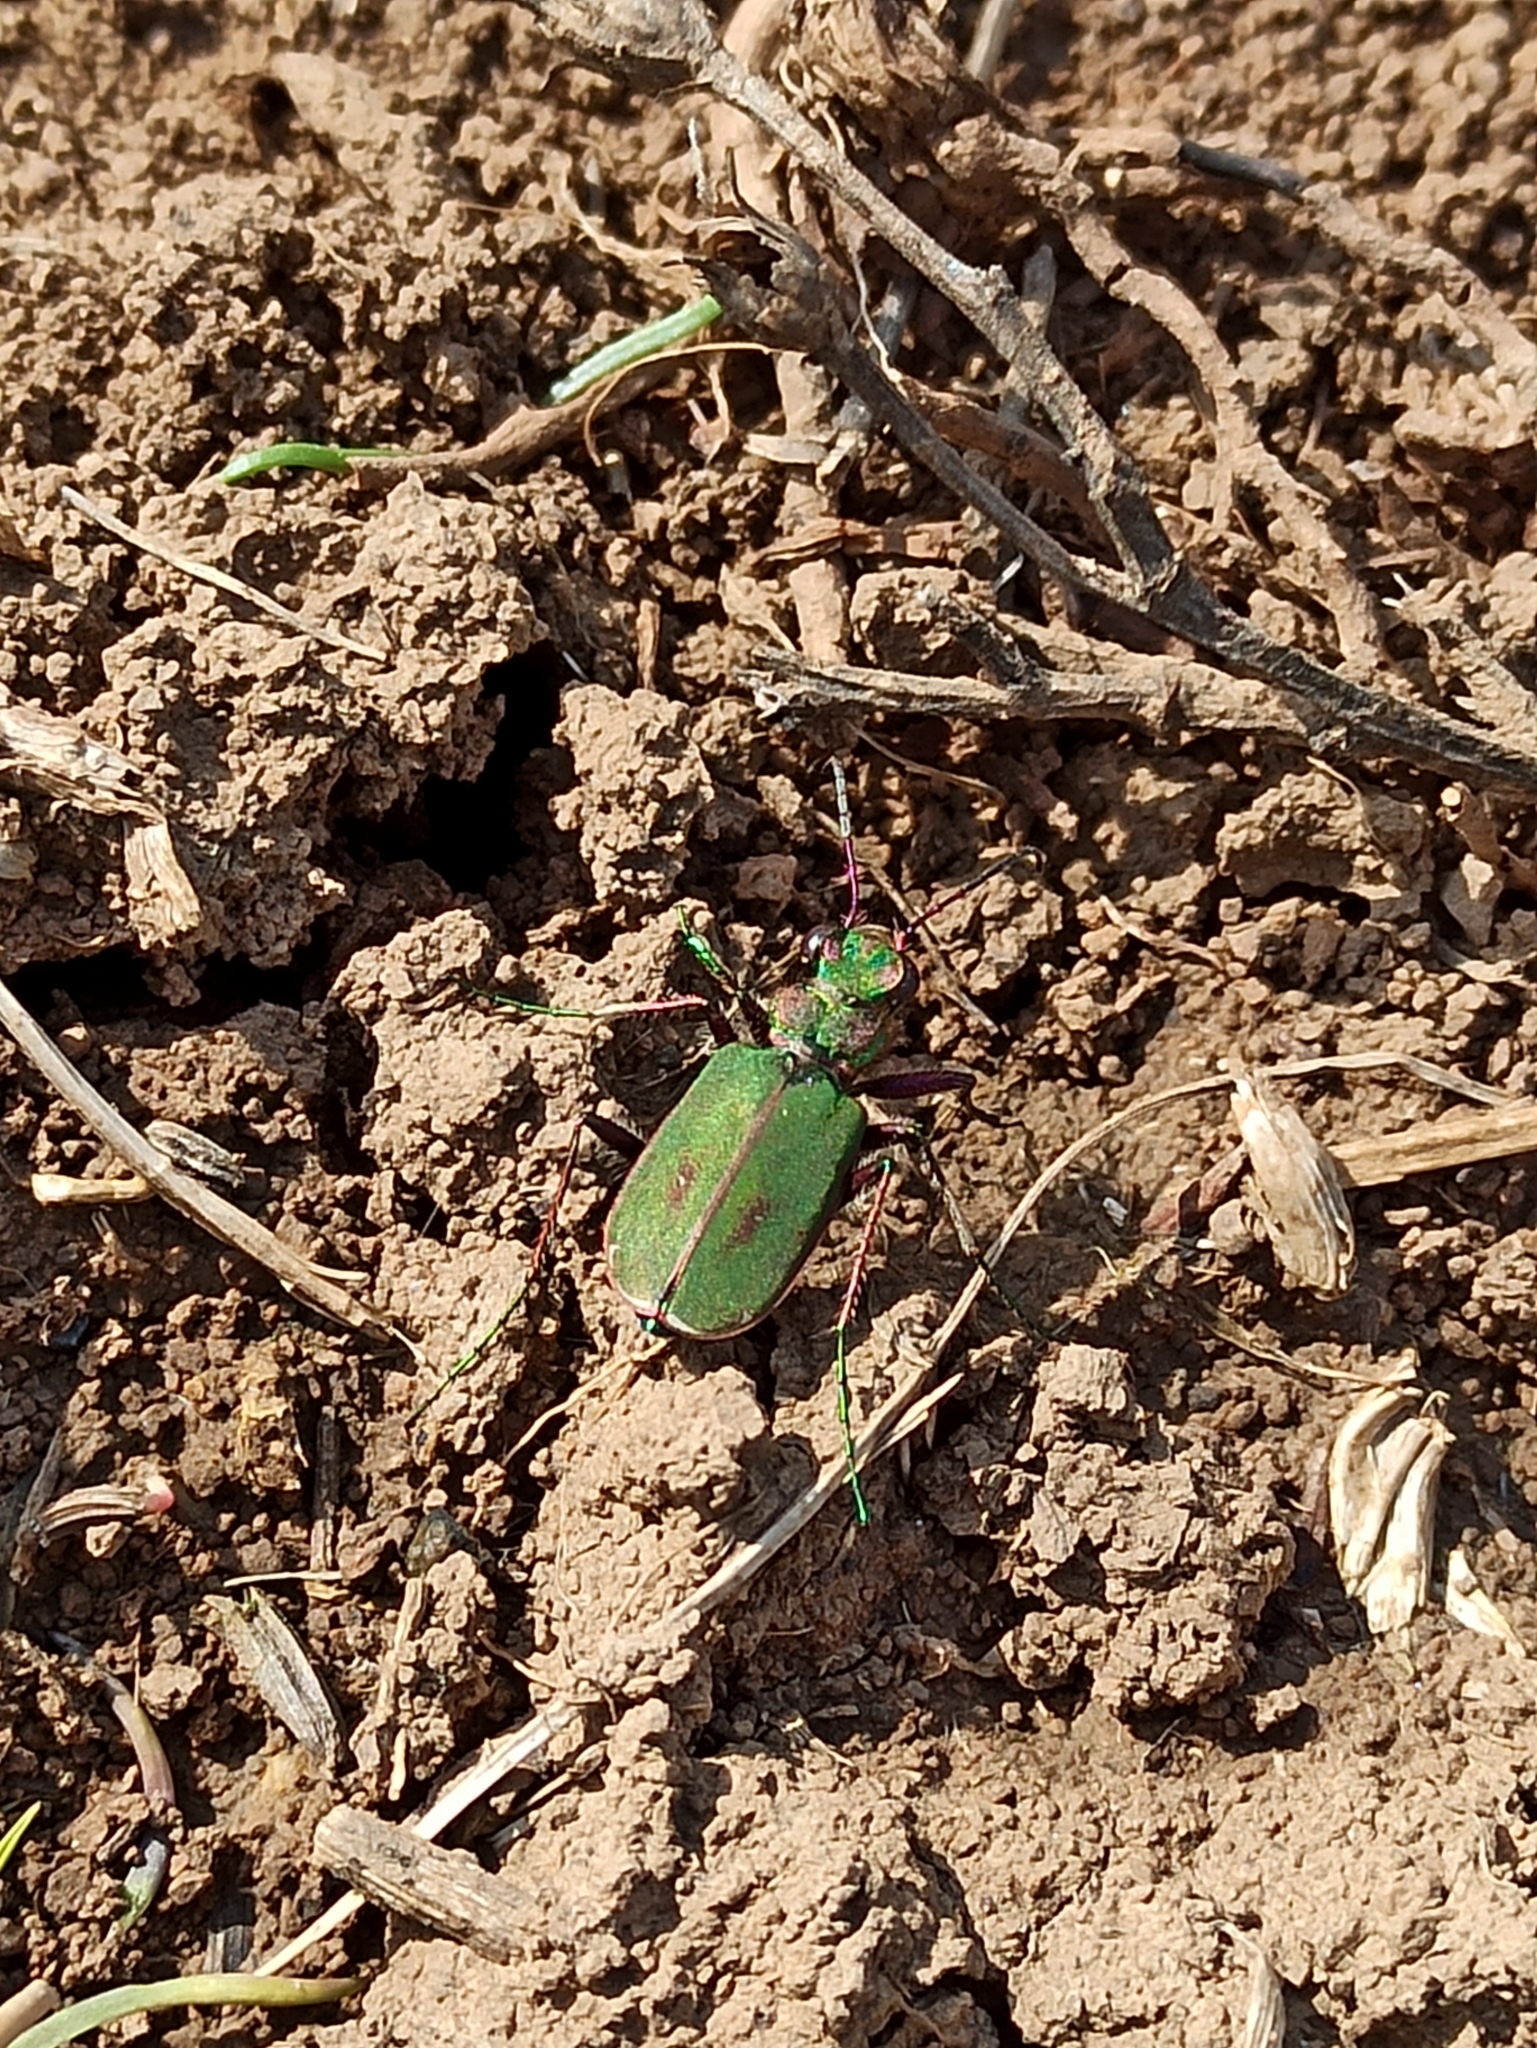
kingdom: Animalia
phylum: Arthropoda
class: Insecta
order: Coleoptera
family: Carabidae
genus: Cicindela
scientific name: Cicindela campestris
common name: Common tiger beetle
